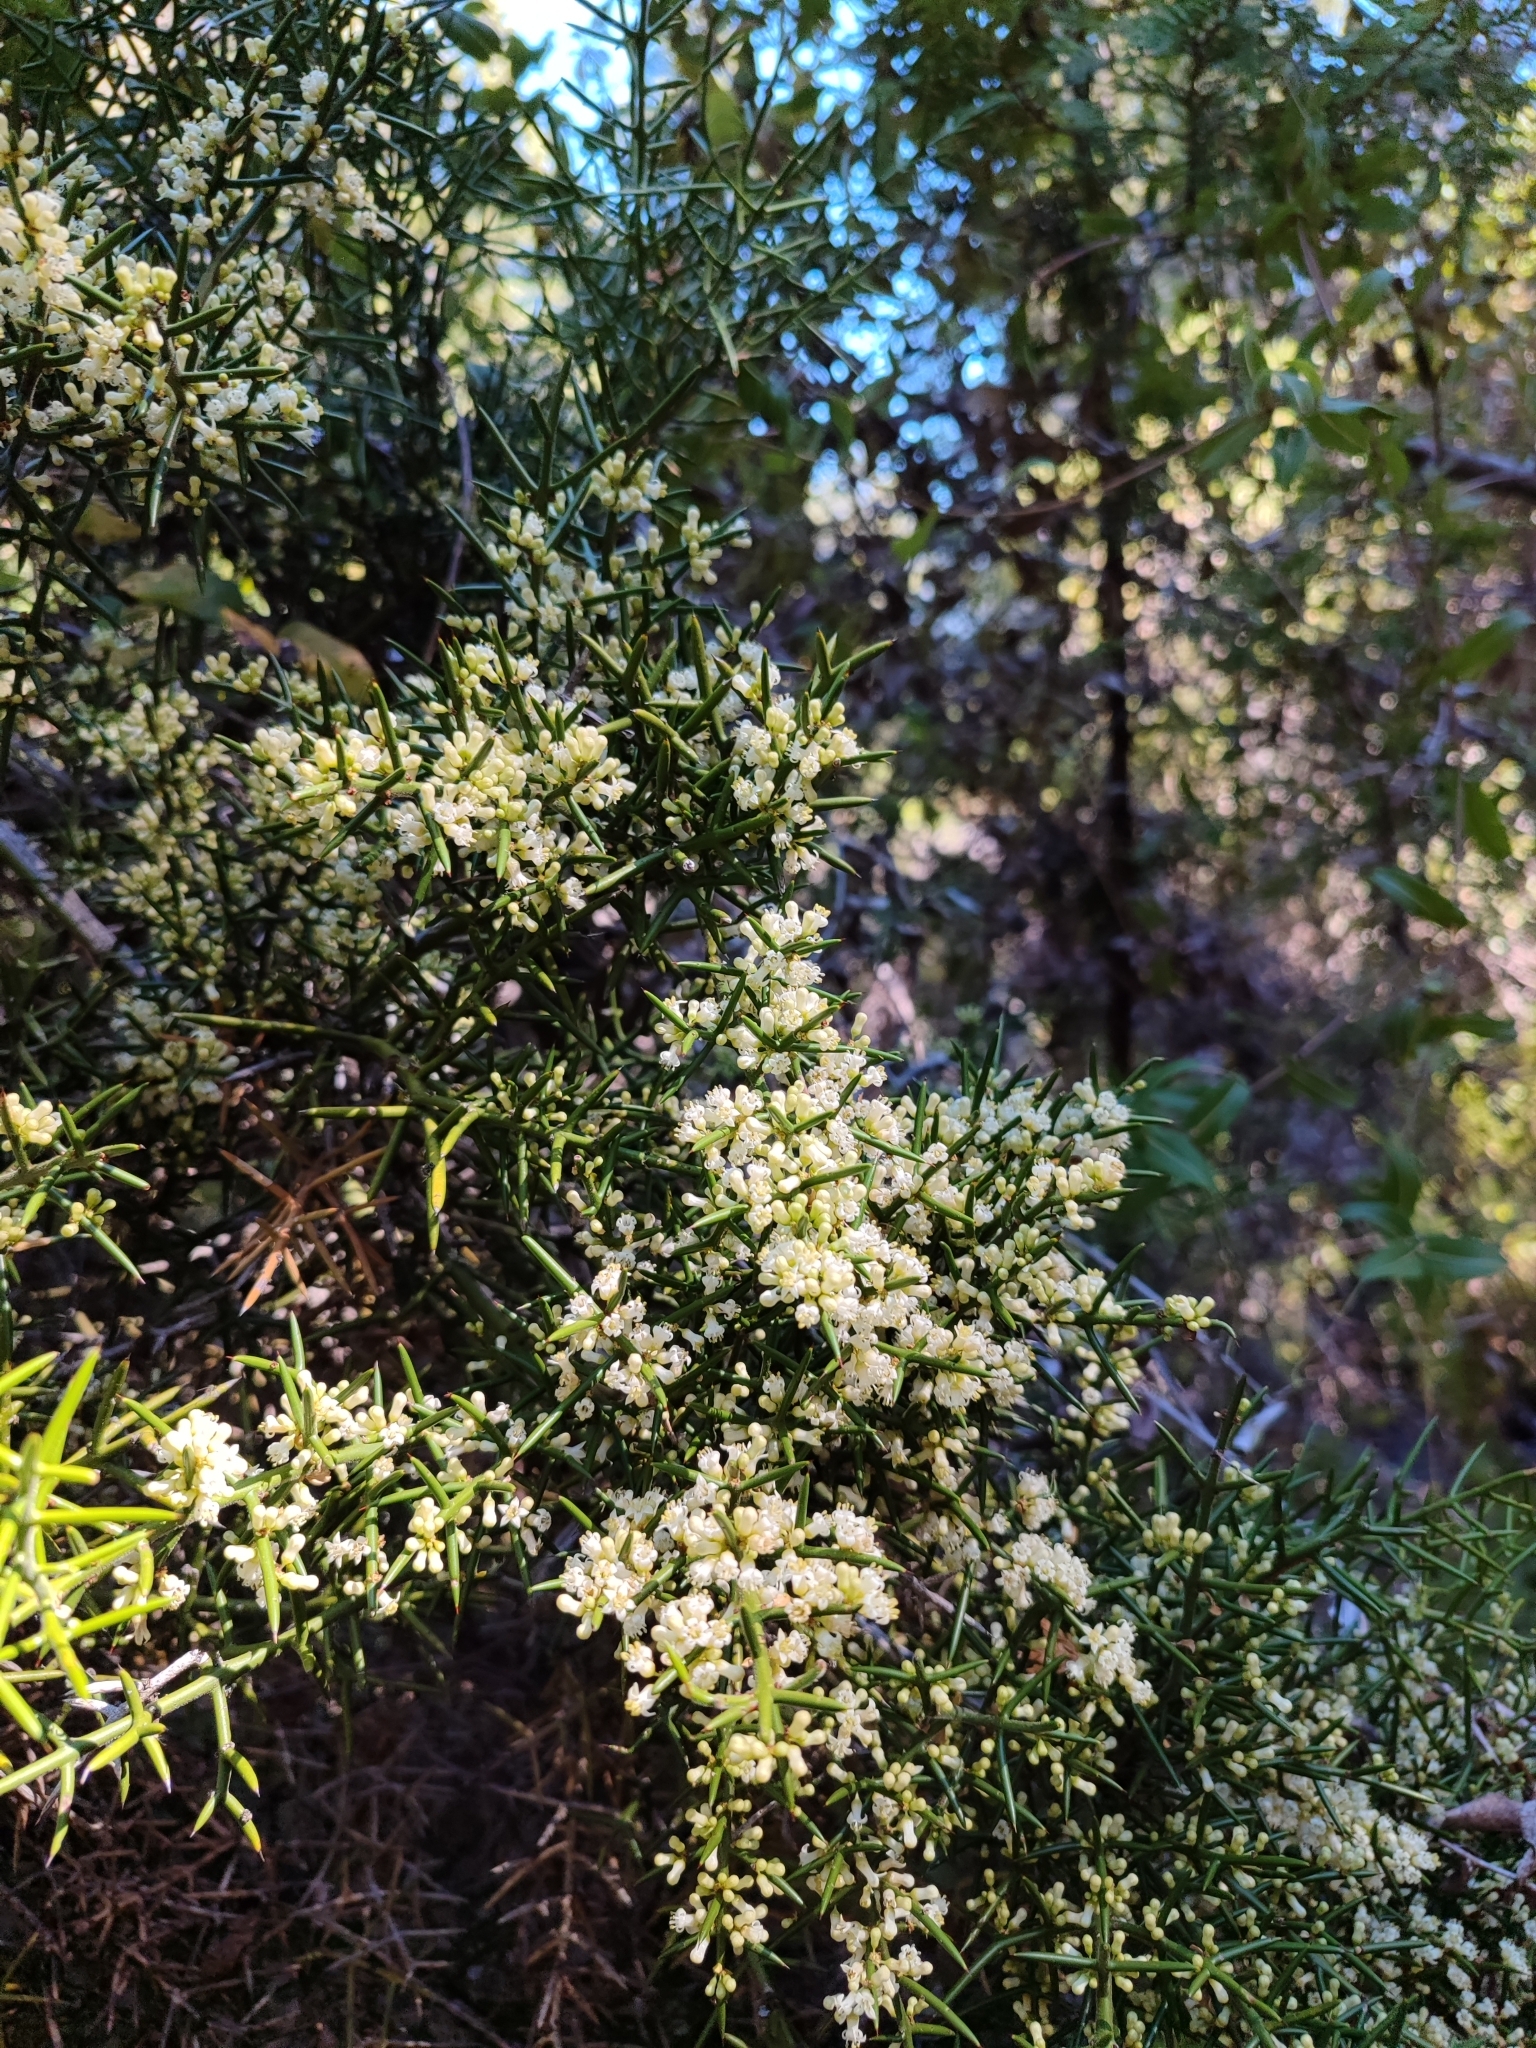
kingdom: Plantae
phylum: Tracheophyta
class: Magnoliopsida
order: Rosales
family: Rhamnaceae
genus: Colletia
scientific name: Colletia hystrix
